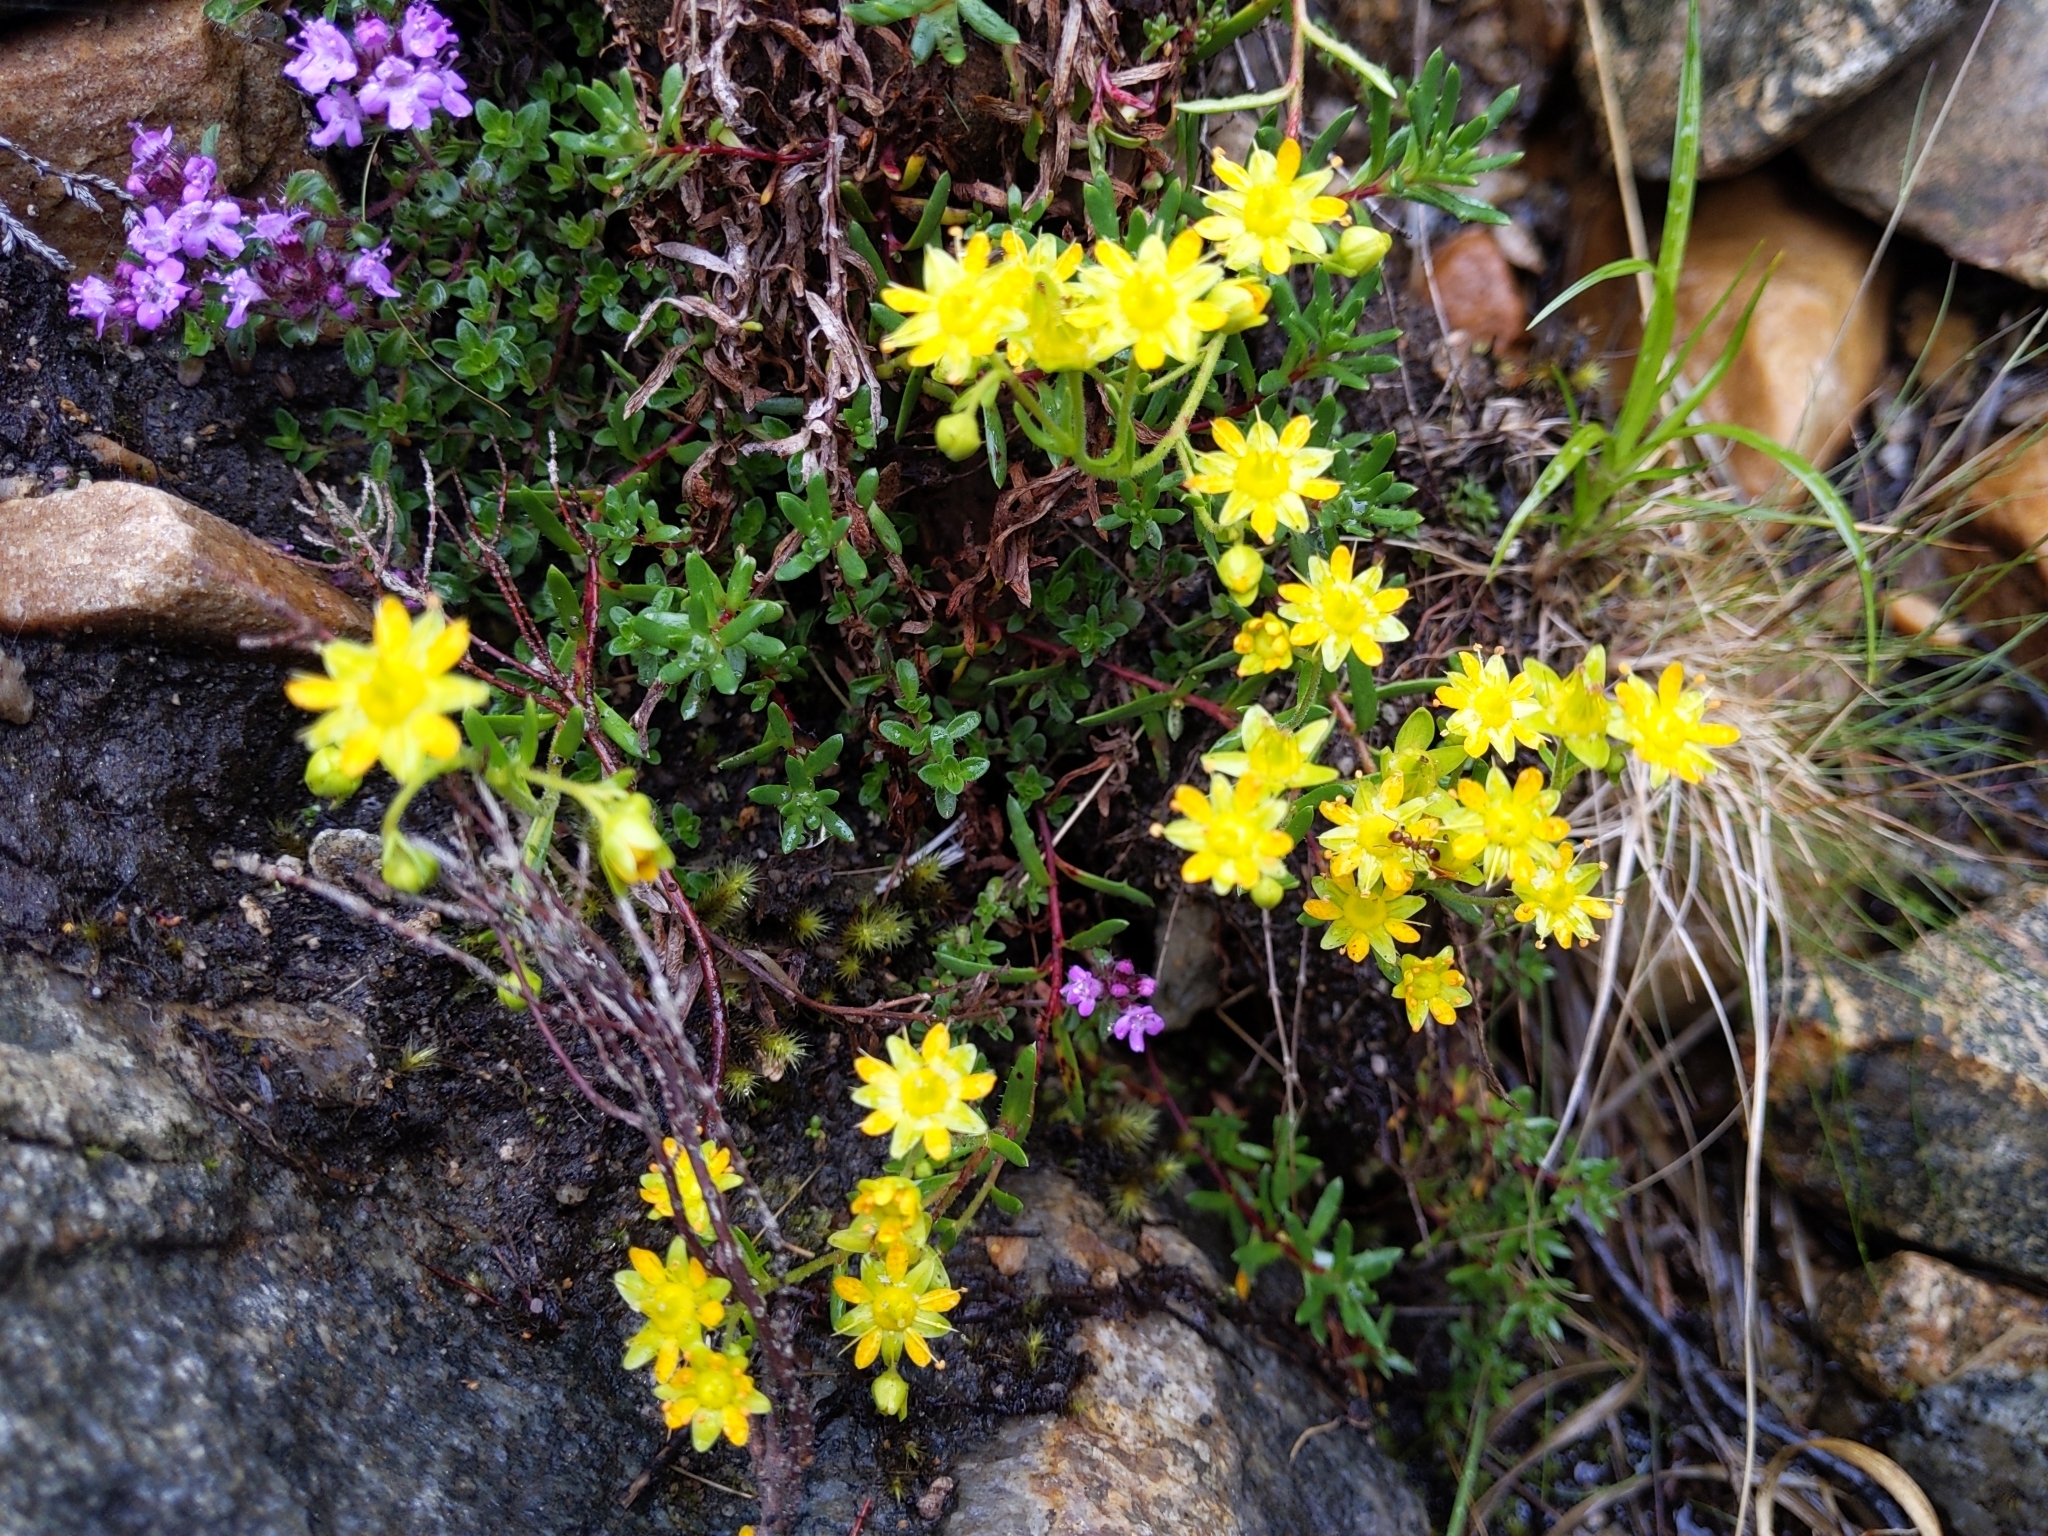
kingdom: Plantae
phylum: Tracheophyta
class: Magnoliopsida
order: Saxifragales
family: Saxifragaceae
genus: Saxifraga
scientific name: Saxifraga aizoides
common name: Yellow mountain saxifrage
